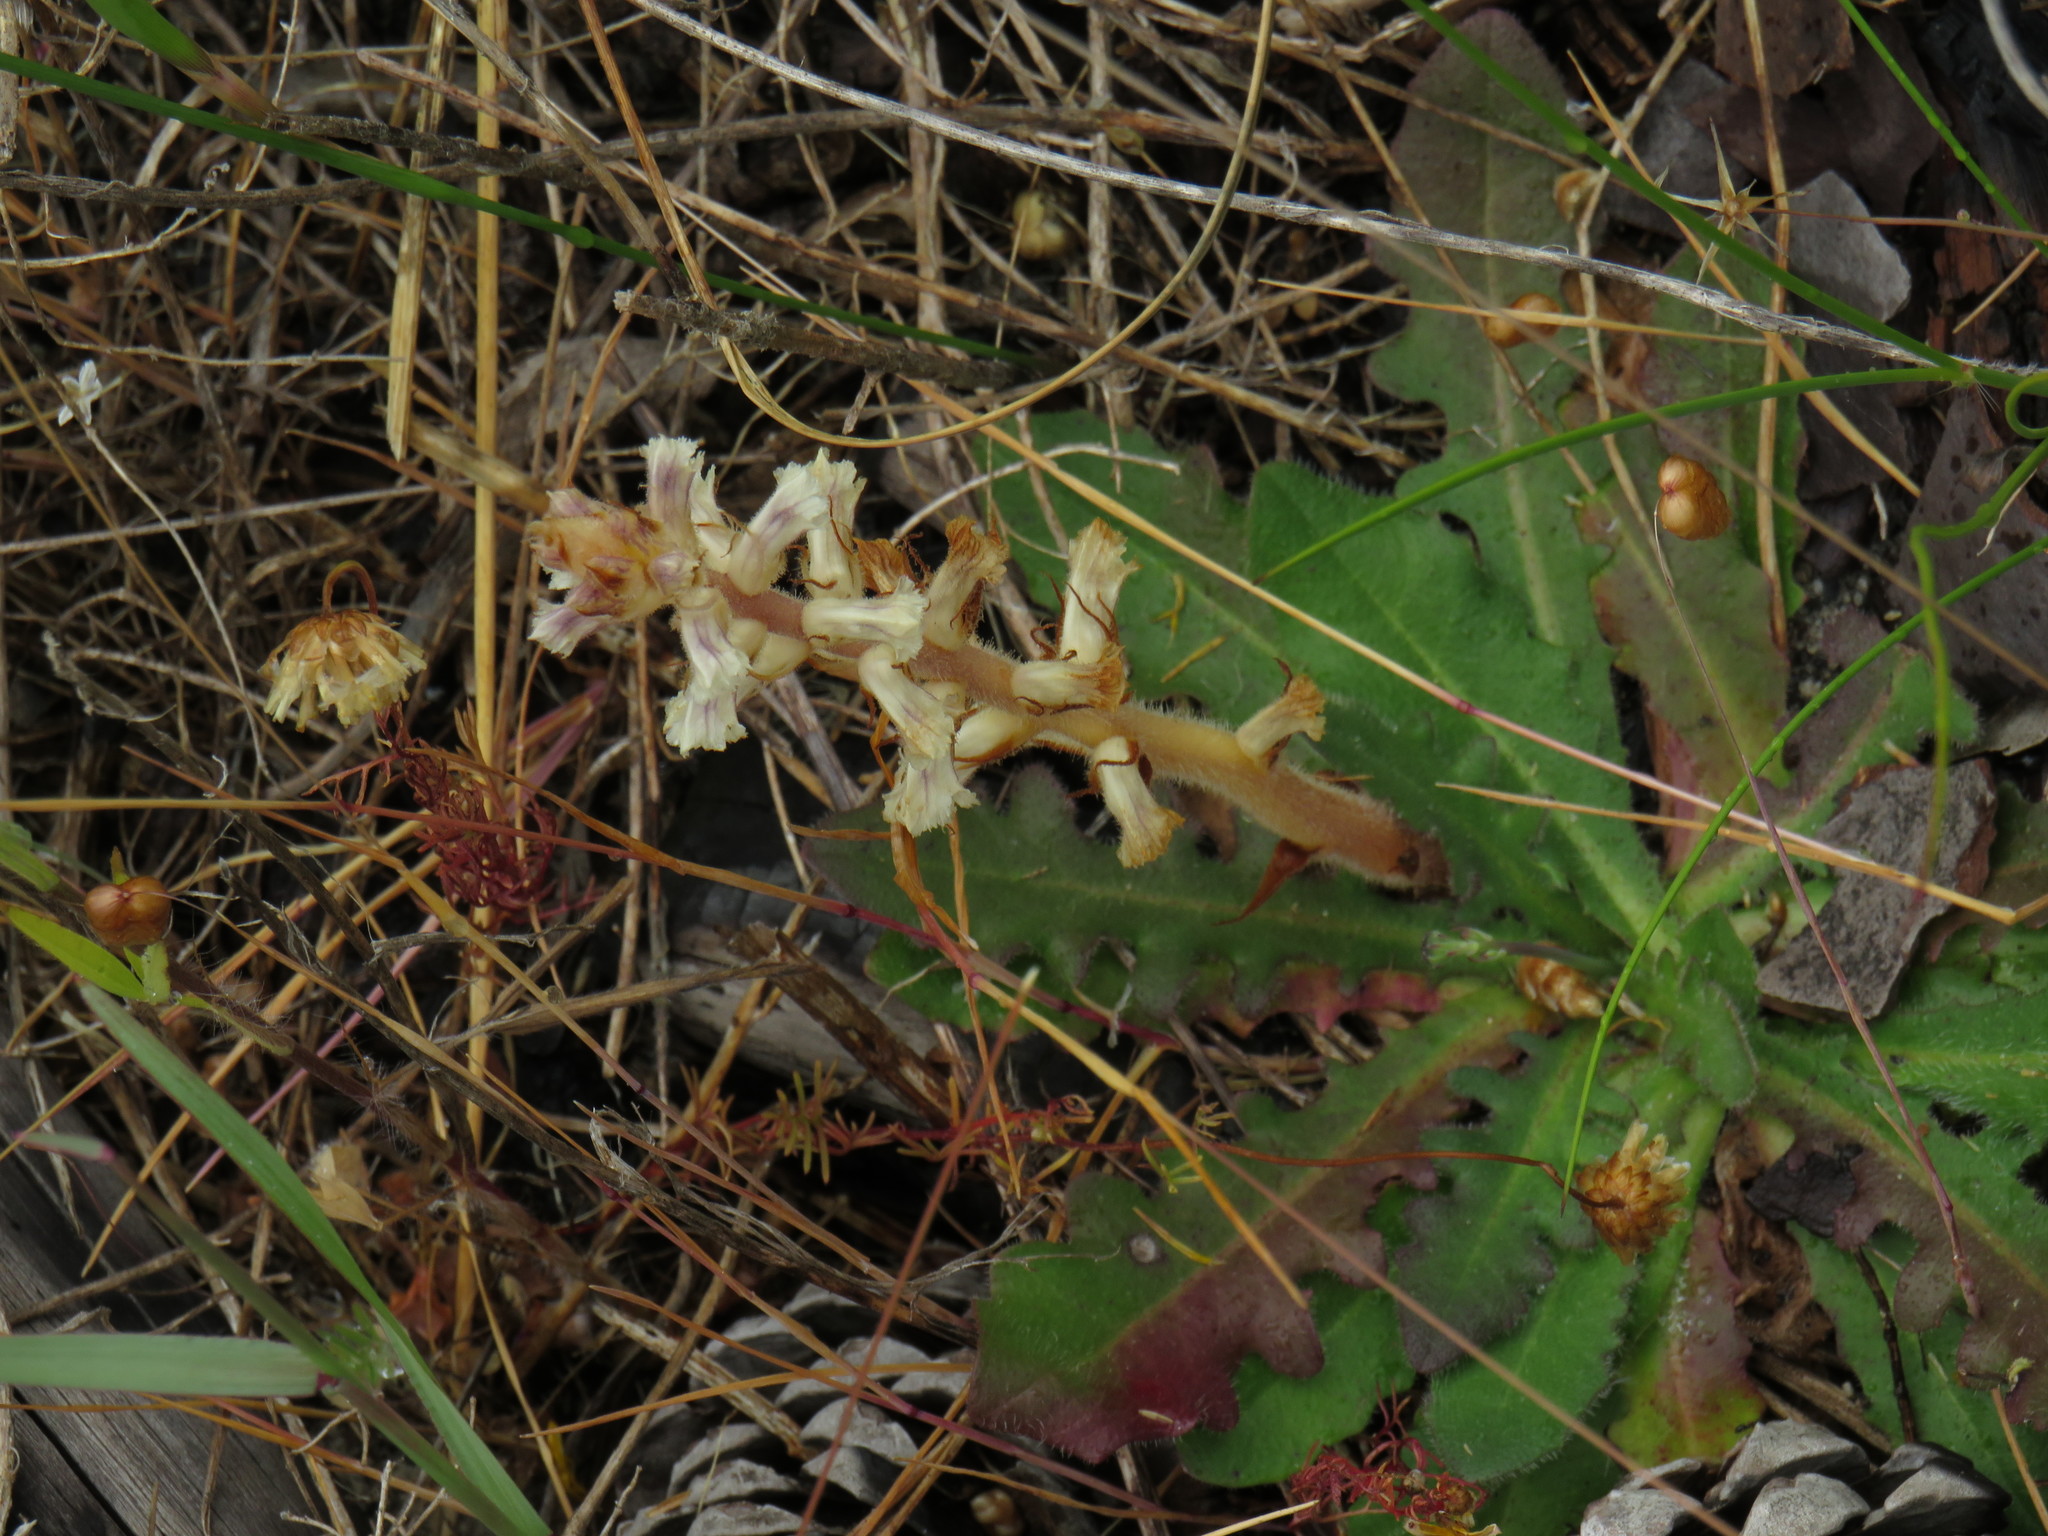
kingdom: Plantae
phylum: Tracheophyta
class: Magnoliopsida
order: Lamiales
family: Orobanchaceae
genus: Orobanche
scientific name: Orobanche minor
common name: Common broomrape
